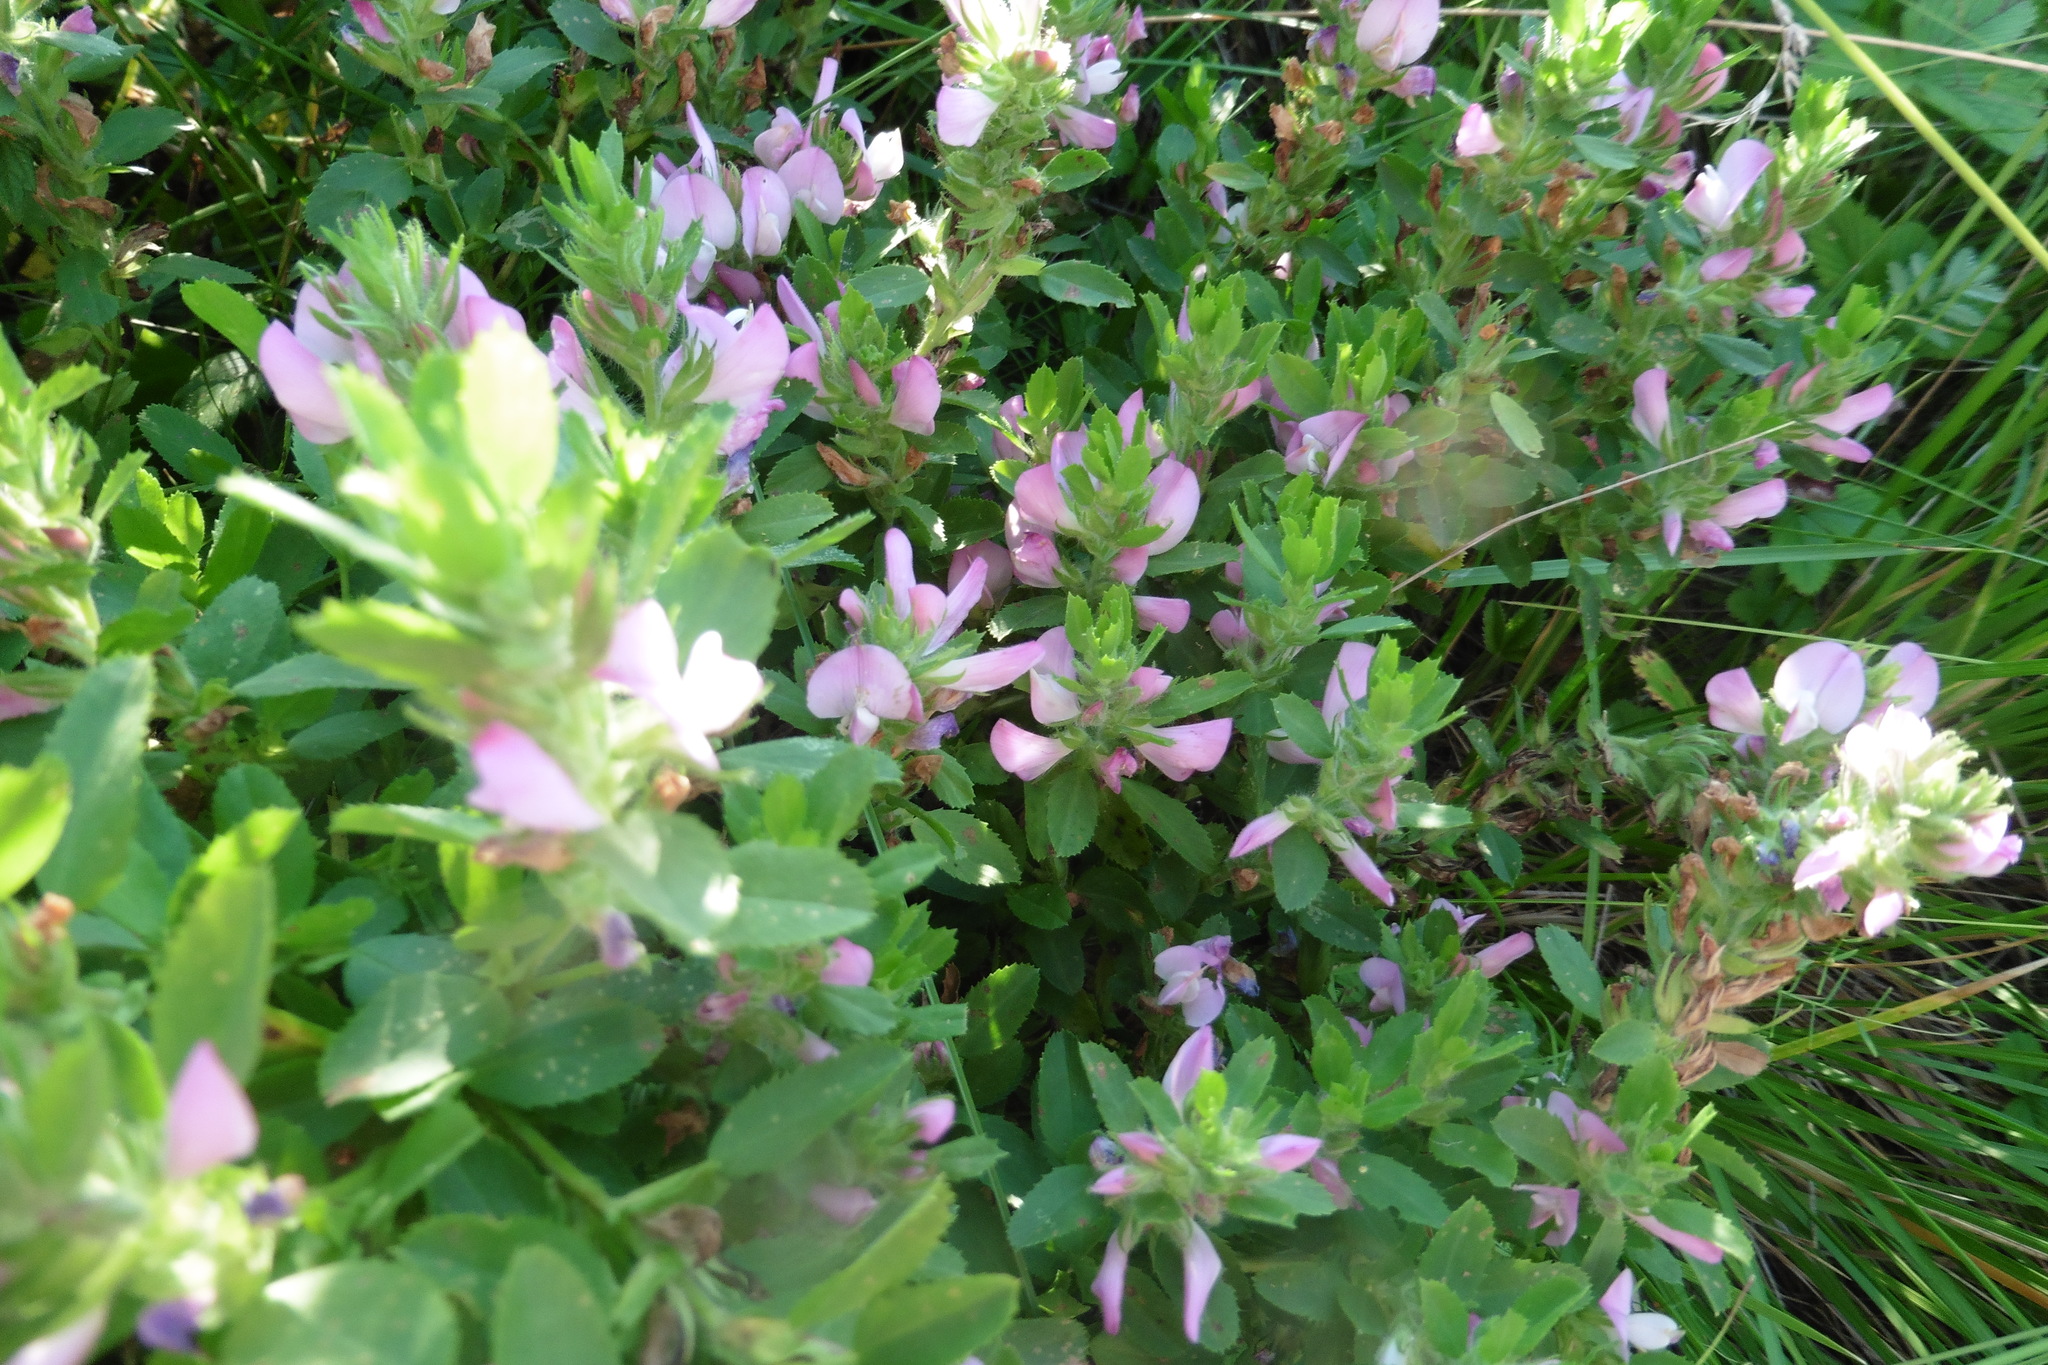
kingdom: Plantae
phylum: Tracheophyta
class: Magnoliopsida
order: Fabales
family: Fabaceae
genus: Ononis
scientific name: Ononis arvensis
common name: Field restharrow
